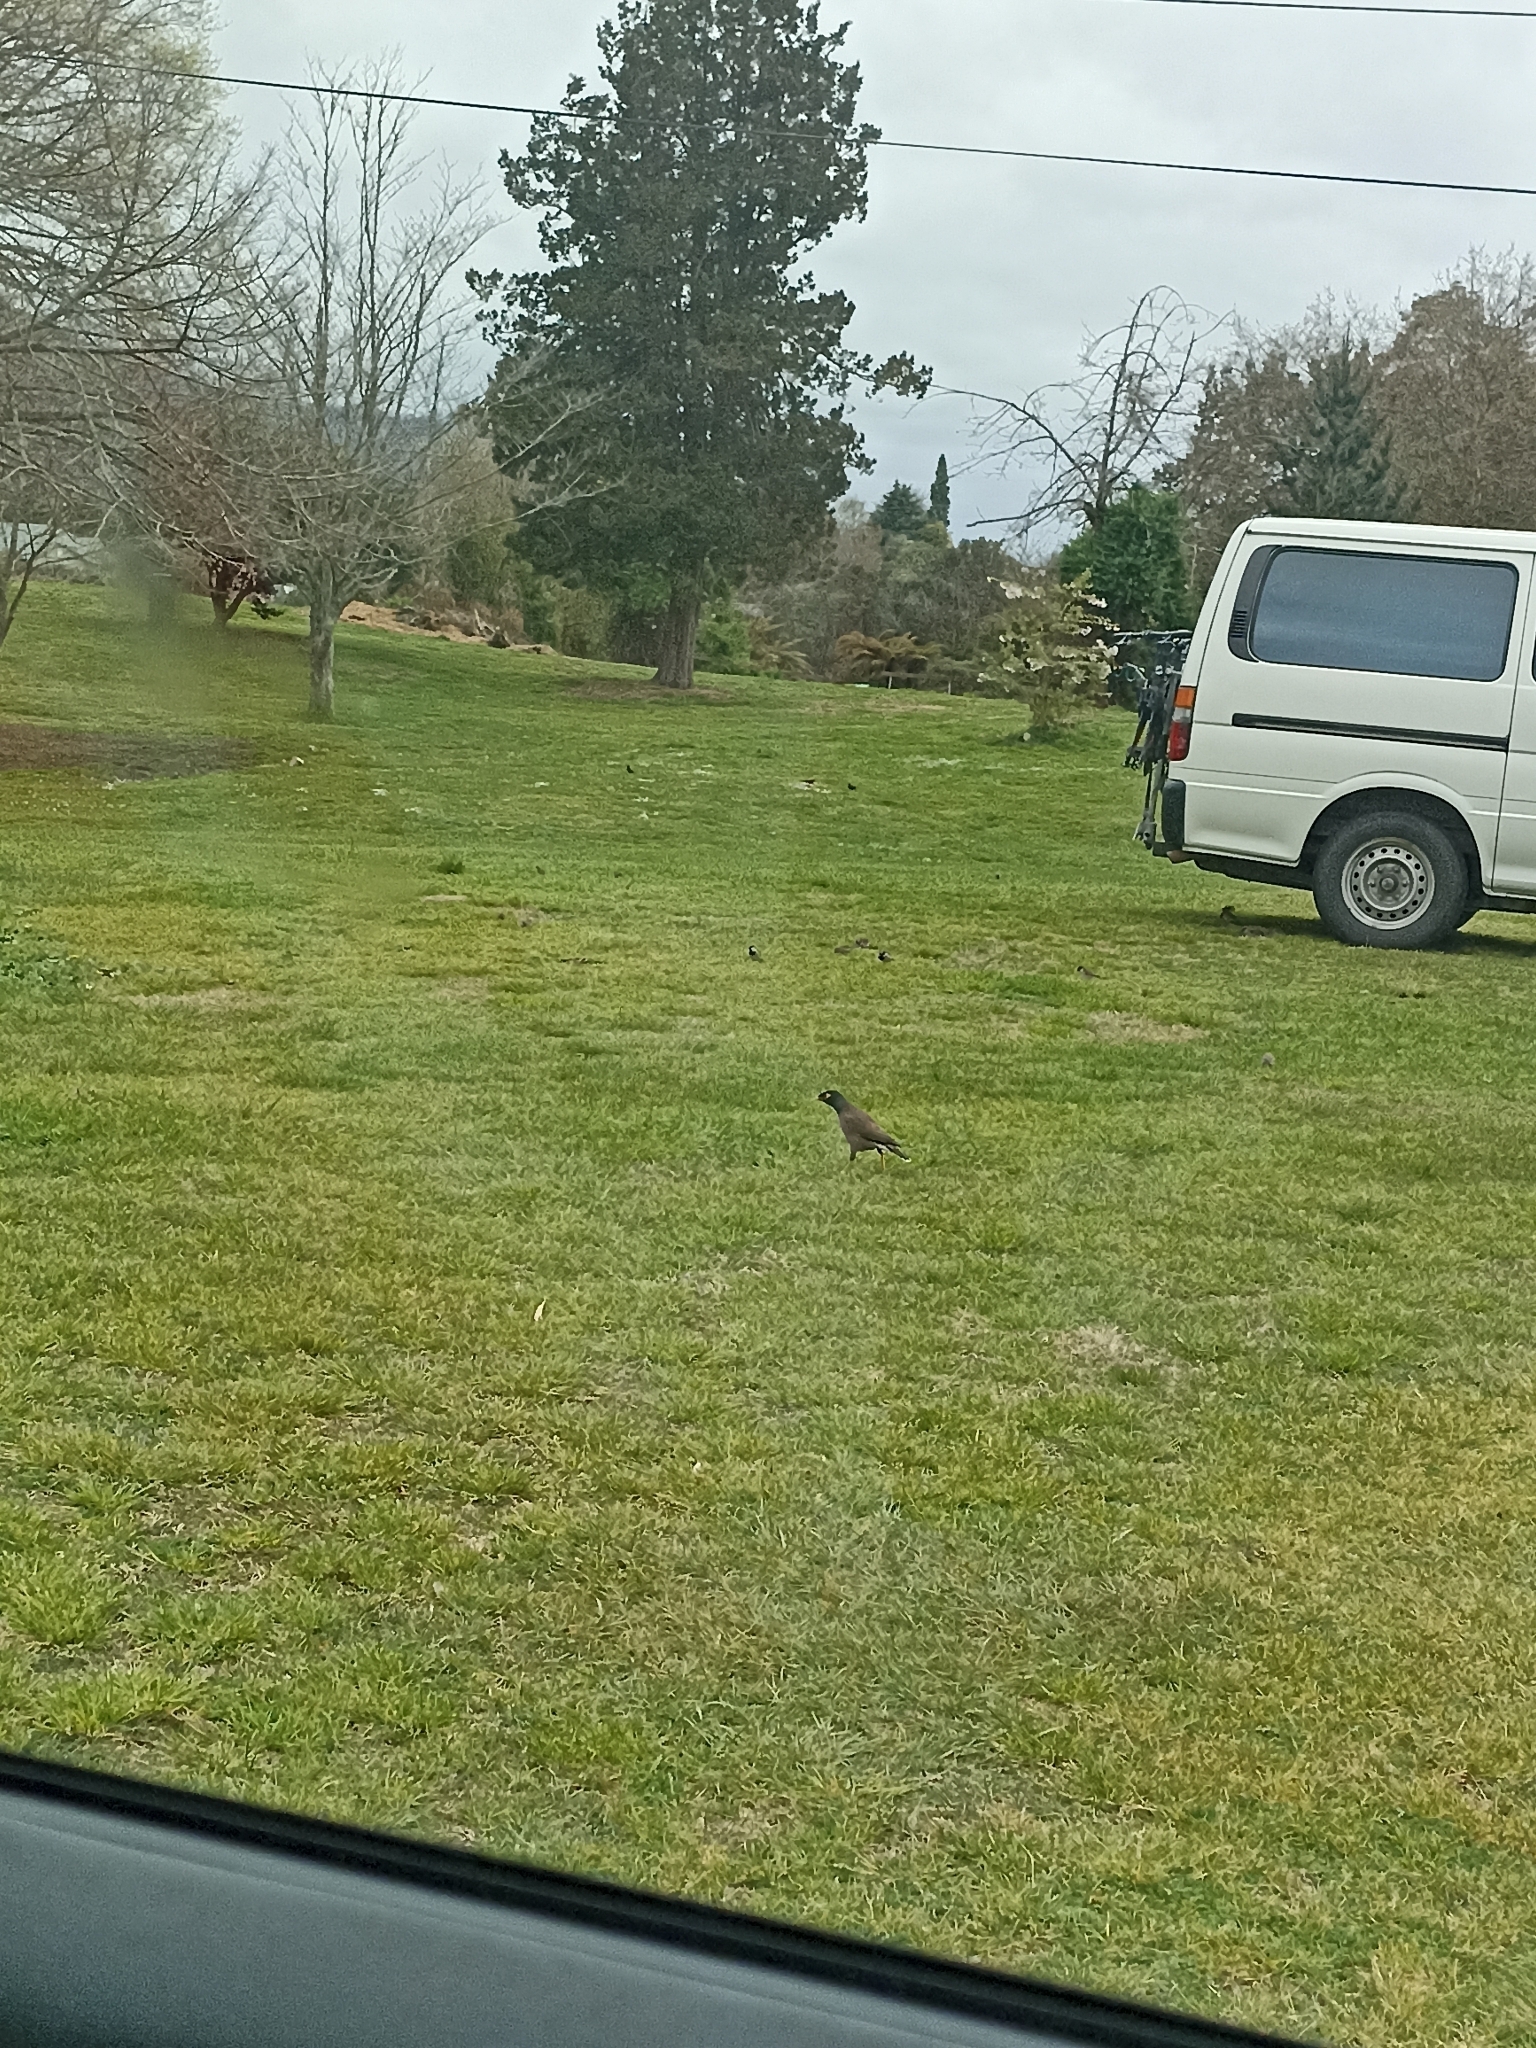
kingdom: Animalia
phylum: Chordata
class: Aves
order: Passeriformes
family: Sturnidae
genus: Acridotheres
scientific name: Acridotheres tristis
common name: Common myna
